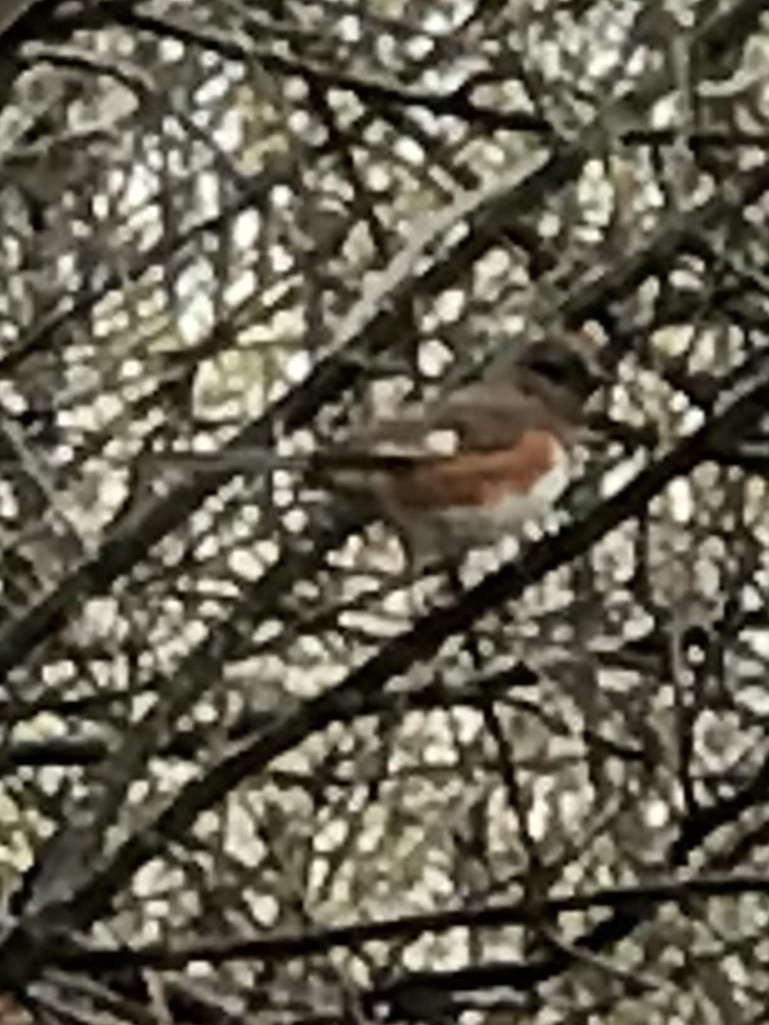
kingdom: Animalia
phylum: Chordata
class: Aves
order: Passeriformes
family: Passerellidae
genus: Pipilo
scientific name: Pipilo erythrophthalmus
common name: Eastern towhee
